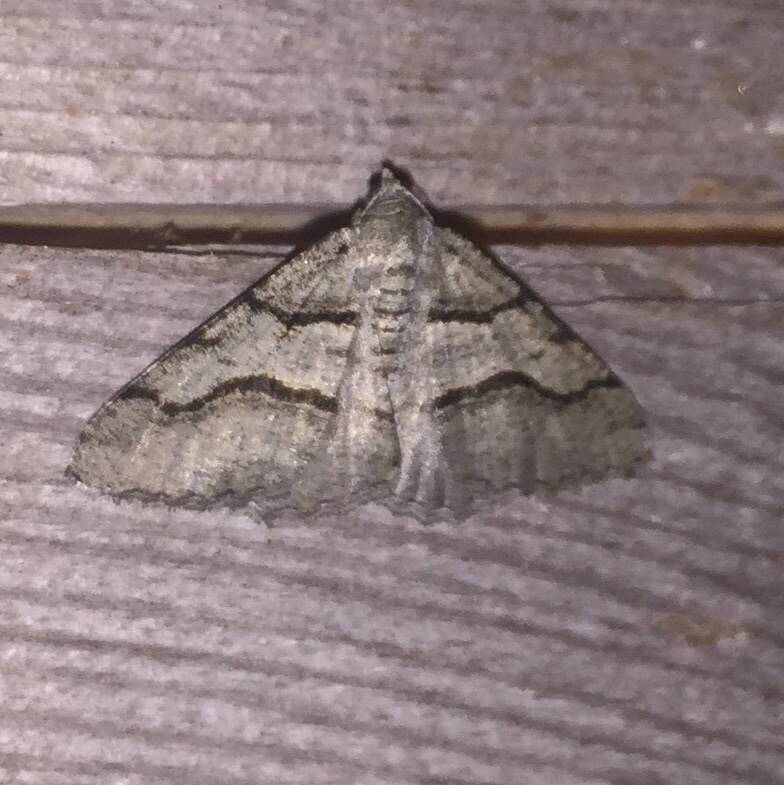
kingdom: Animalia
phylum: Arthropoda
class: Insecta
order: Lepidoptera
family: Geometridae
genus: Digrammia
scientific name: Digrammia continuata
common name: Curve-lined angle
